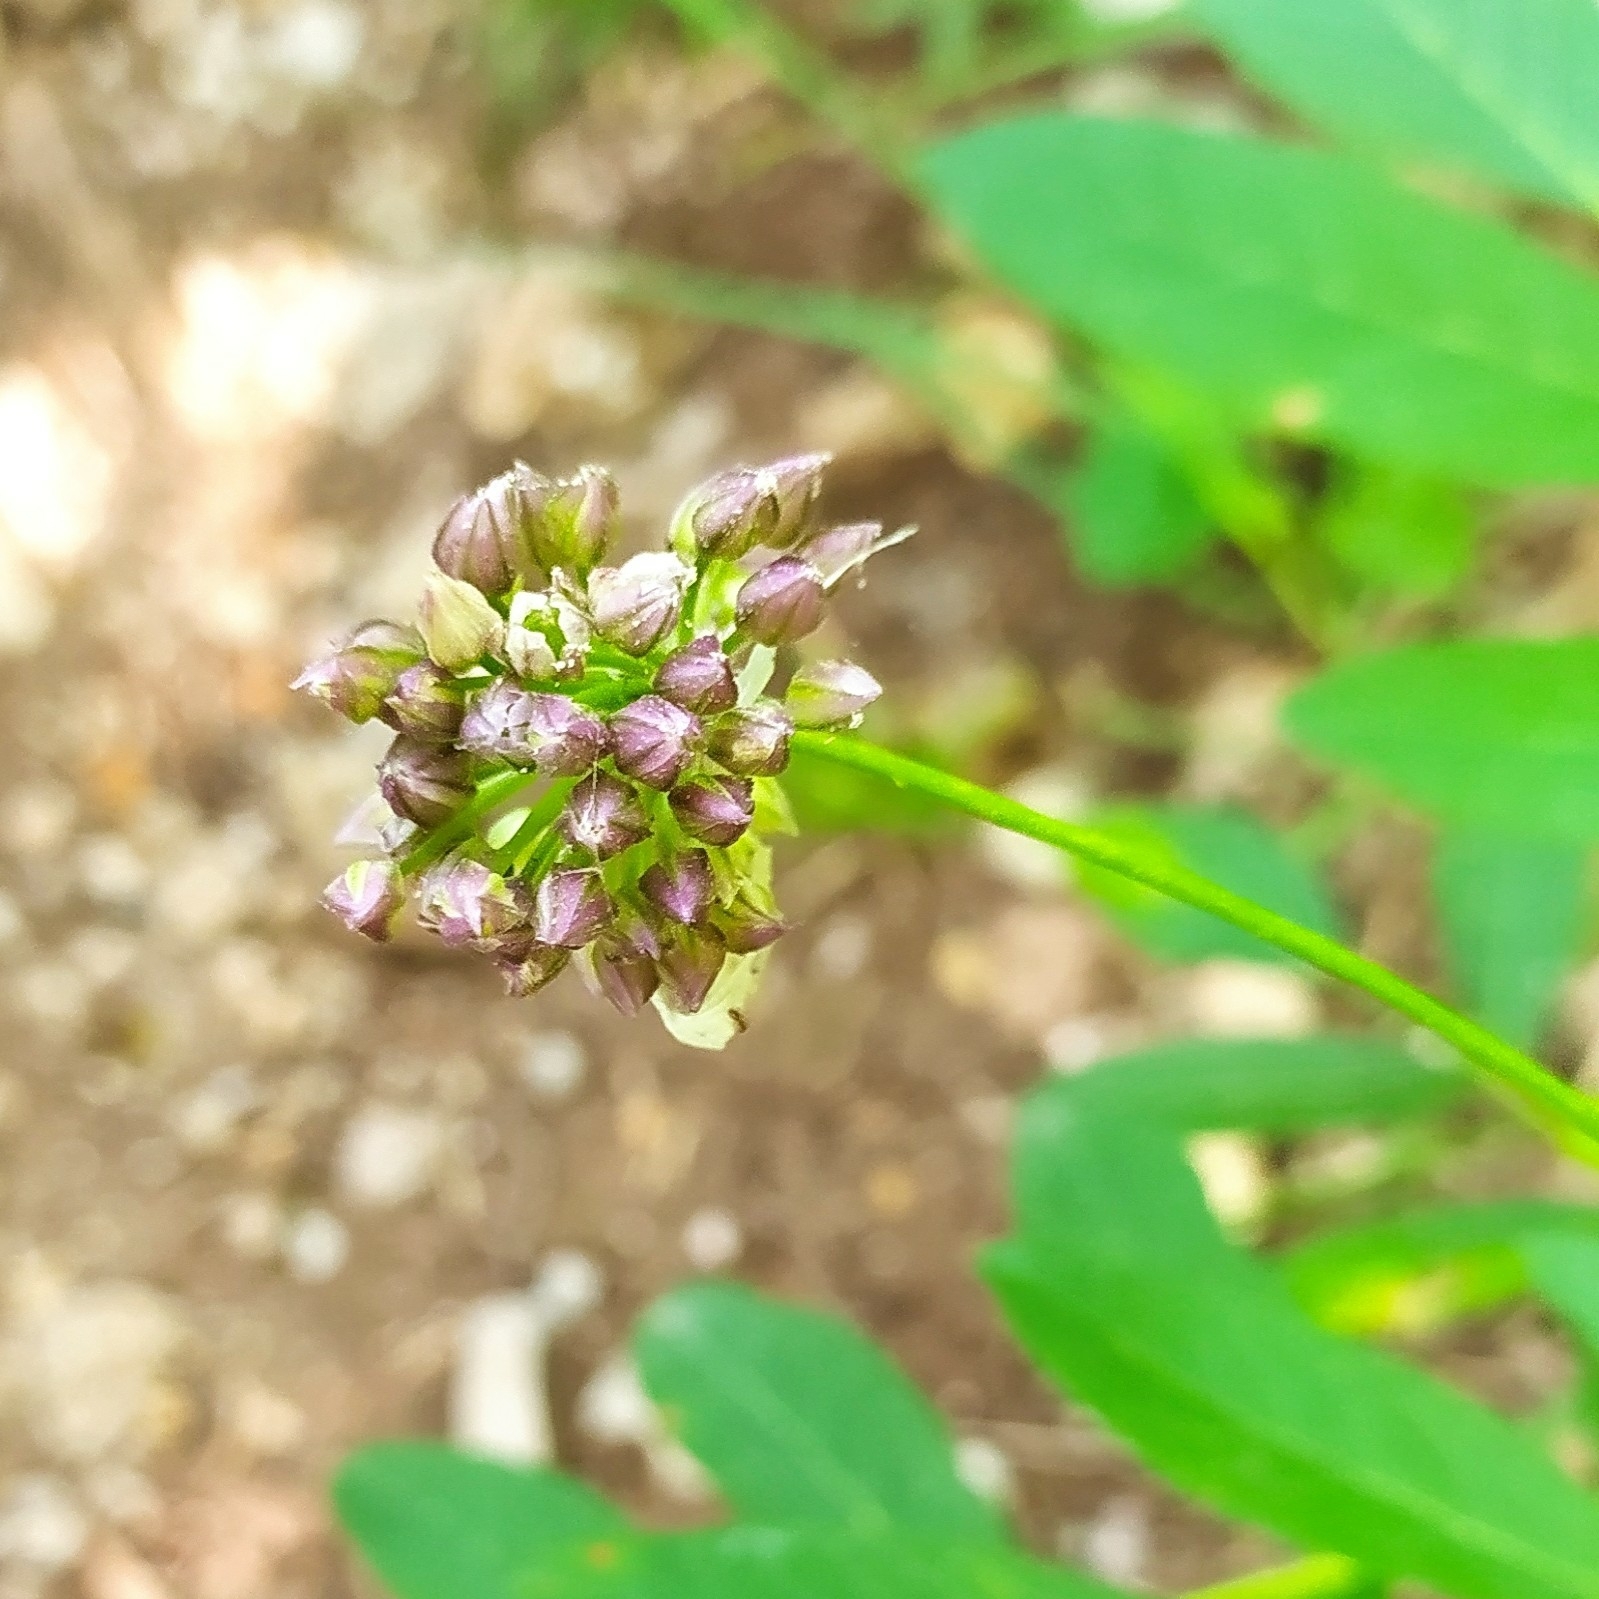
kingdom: Plantae
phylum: Tracheophyta
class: Liliopsida
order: Asparagales
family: Amaryllidaceae
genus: Allium
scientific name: Allium rotundum
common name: Sand leek
